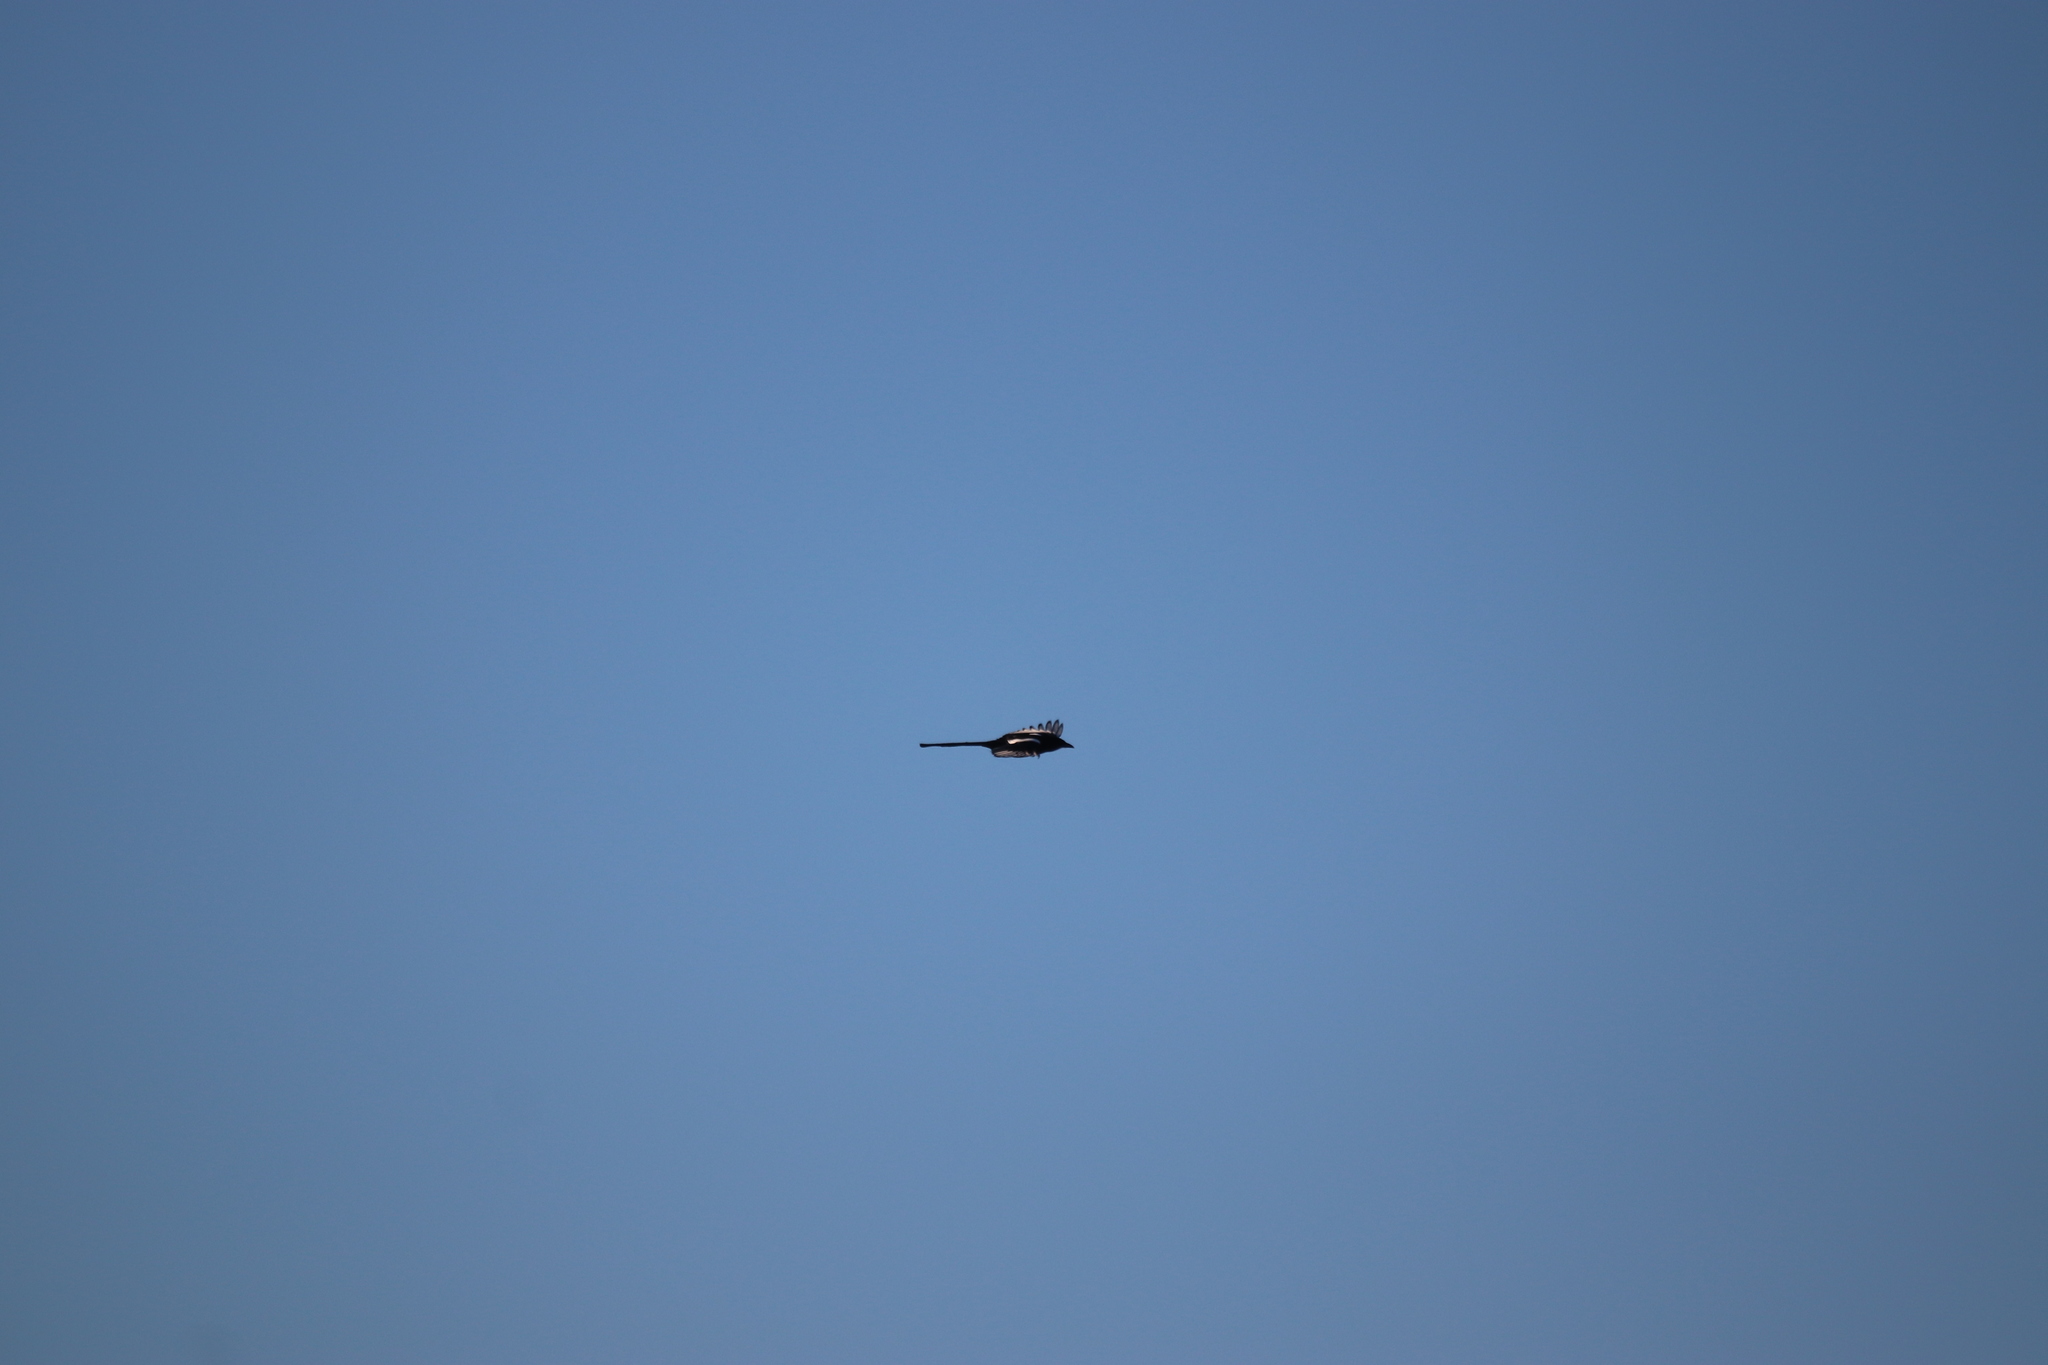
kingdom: Animalia
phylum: Chordata
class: Aves
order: Passeriformes
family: Corvidae
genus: Pica
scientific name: Pica pica
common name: Eurasian magpie
